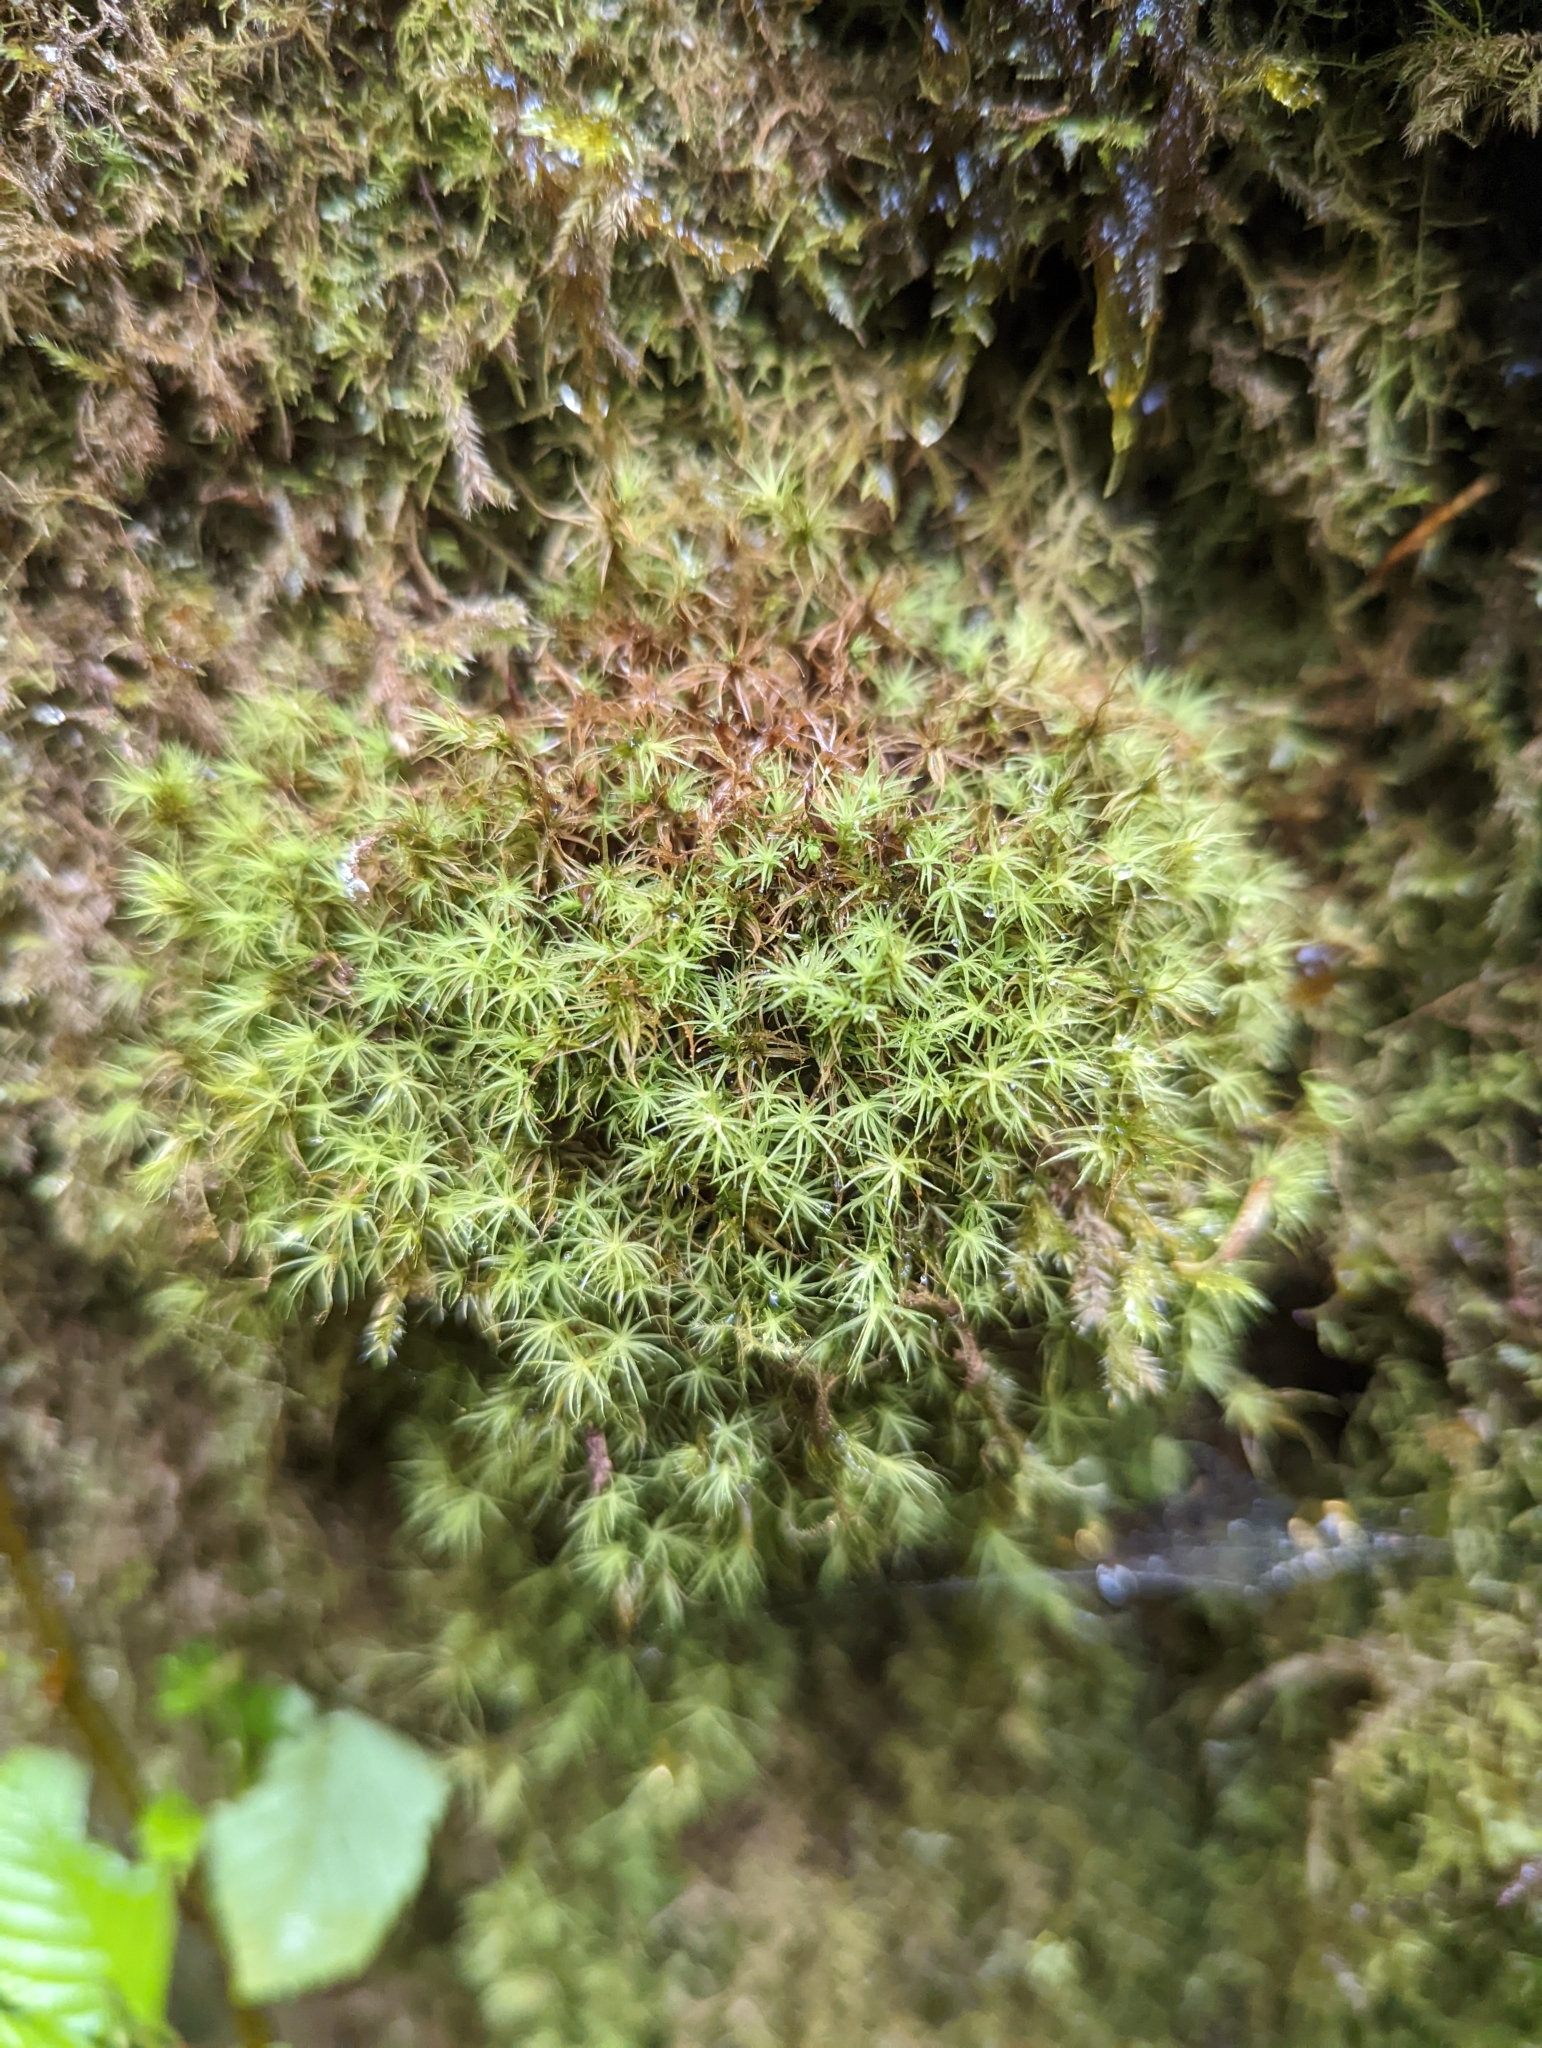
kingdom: Plantae
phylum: Bryophyta
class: Bryopsida
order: Bartramiales
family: Bartramiaceae
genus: Bartramia
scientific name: Bartramia ithyphylla
